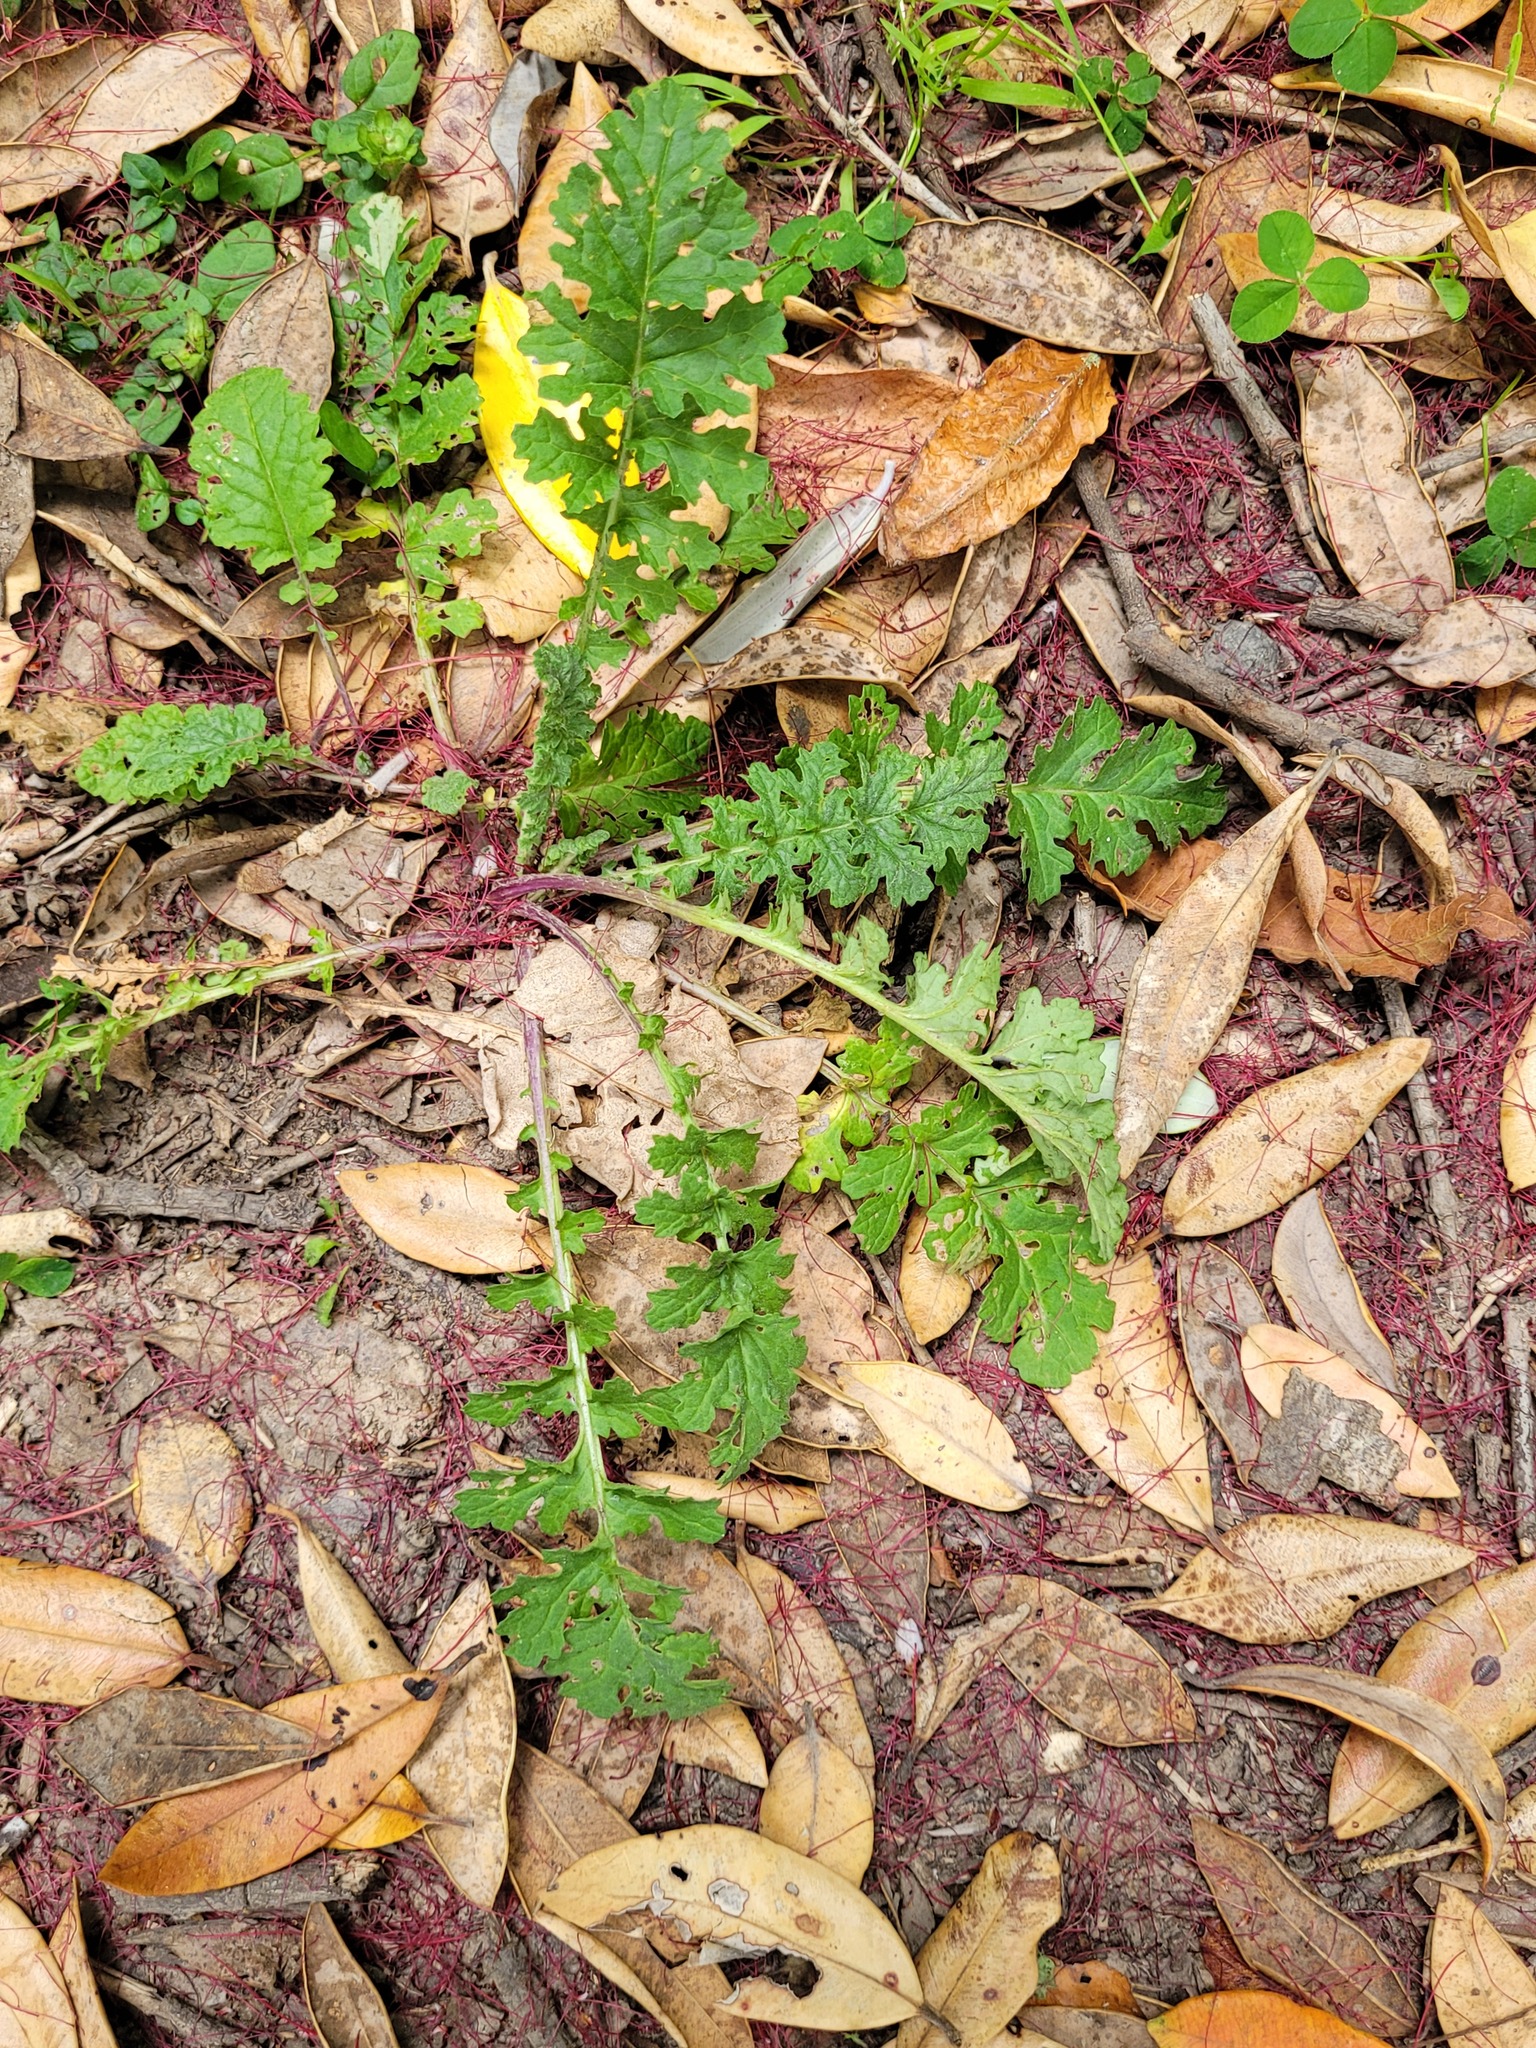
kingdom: Plantae
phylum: Tracheophyta
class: Magnoliopsida
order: Asterales
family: Asteraceae
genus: Jacobaea
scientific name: Jacobaea vulgaris
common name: Stinking willie
